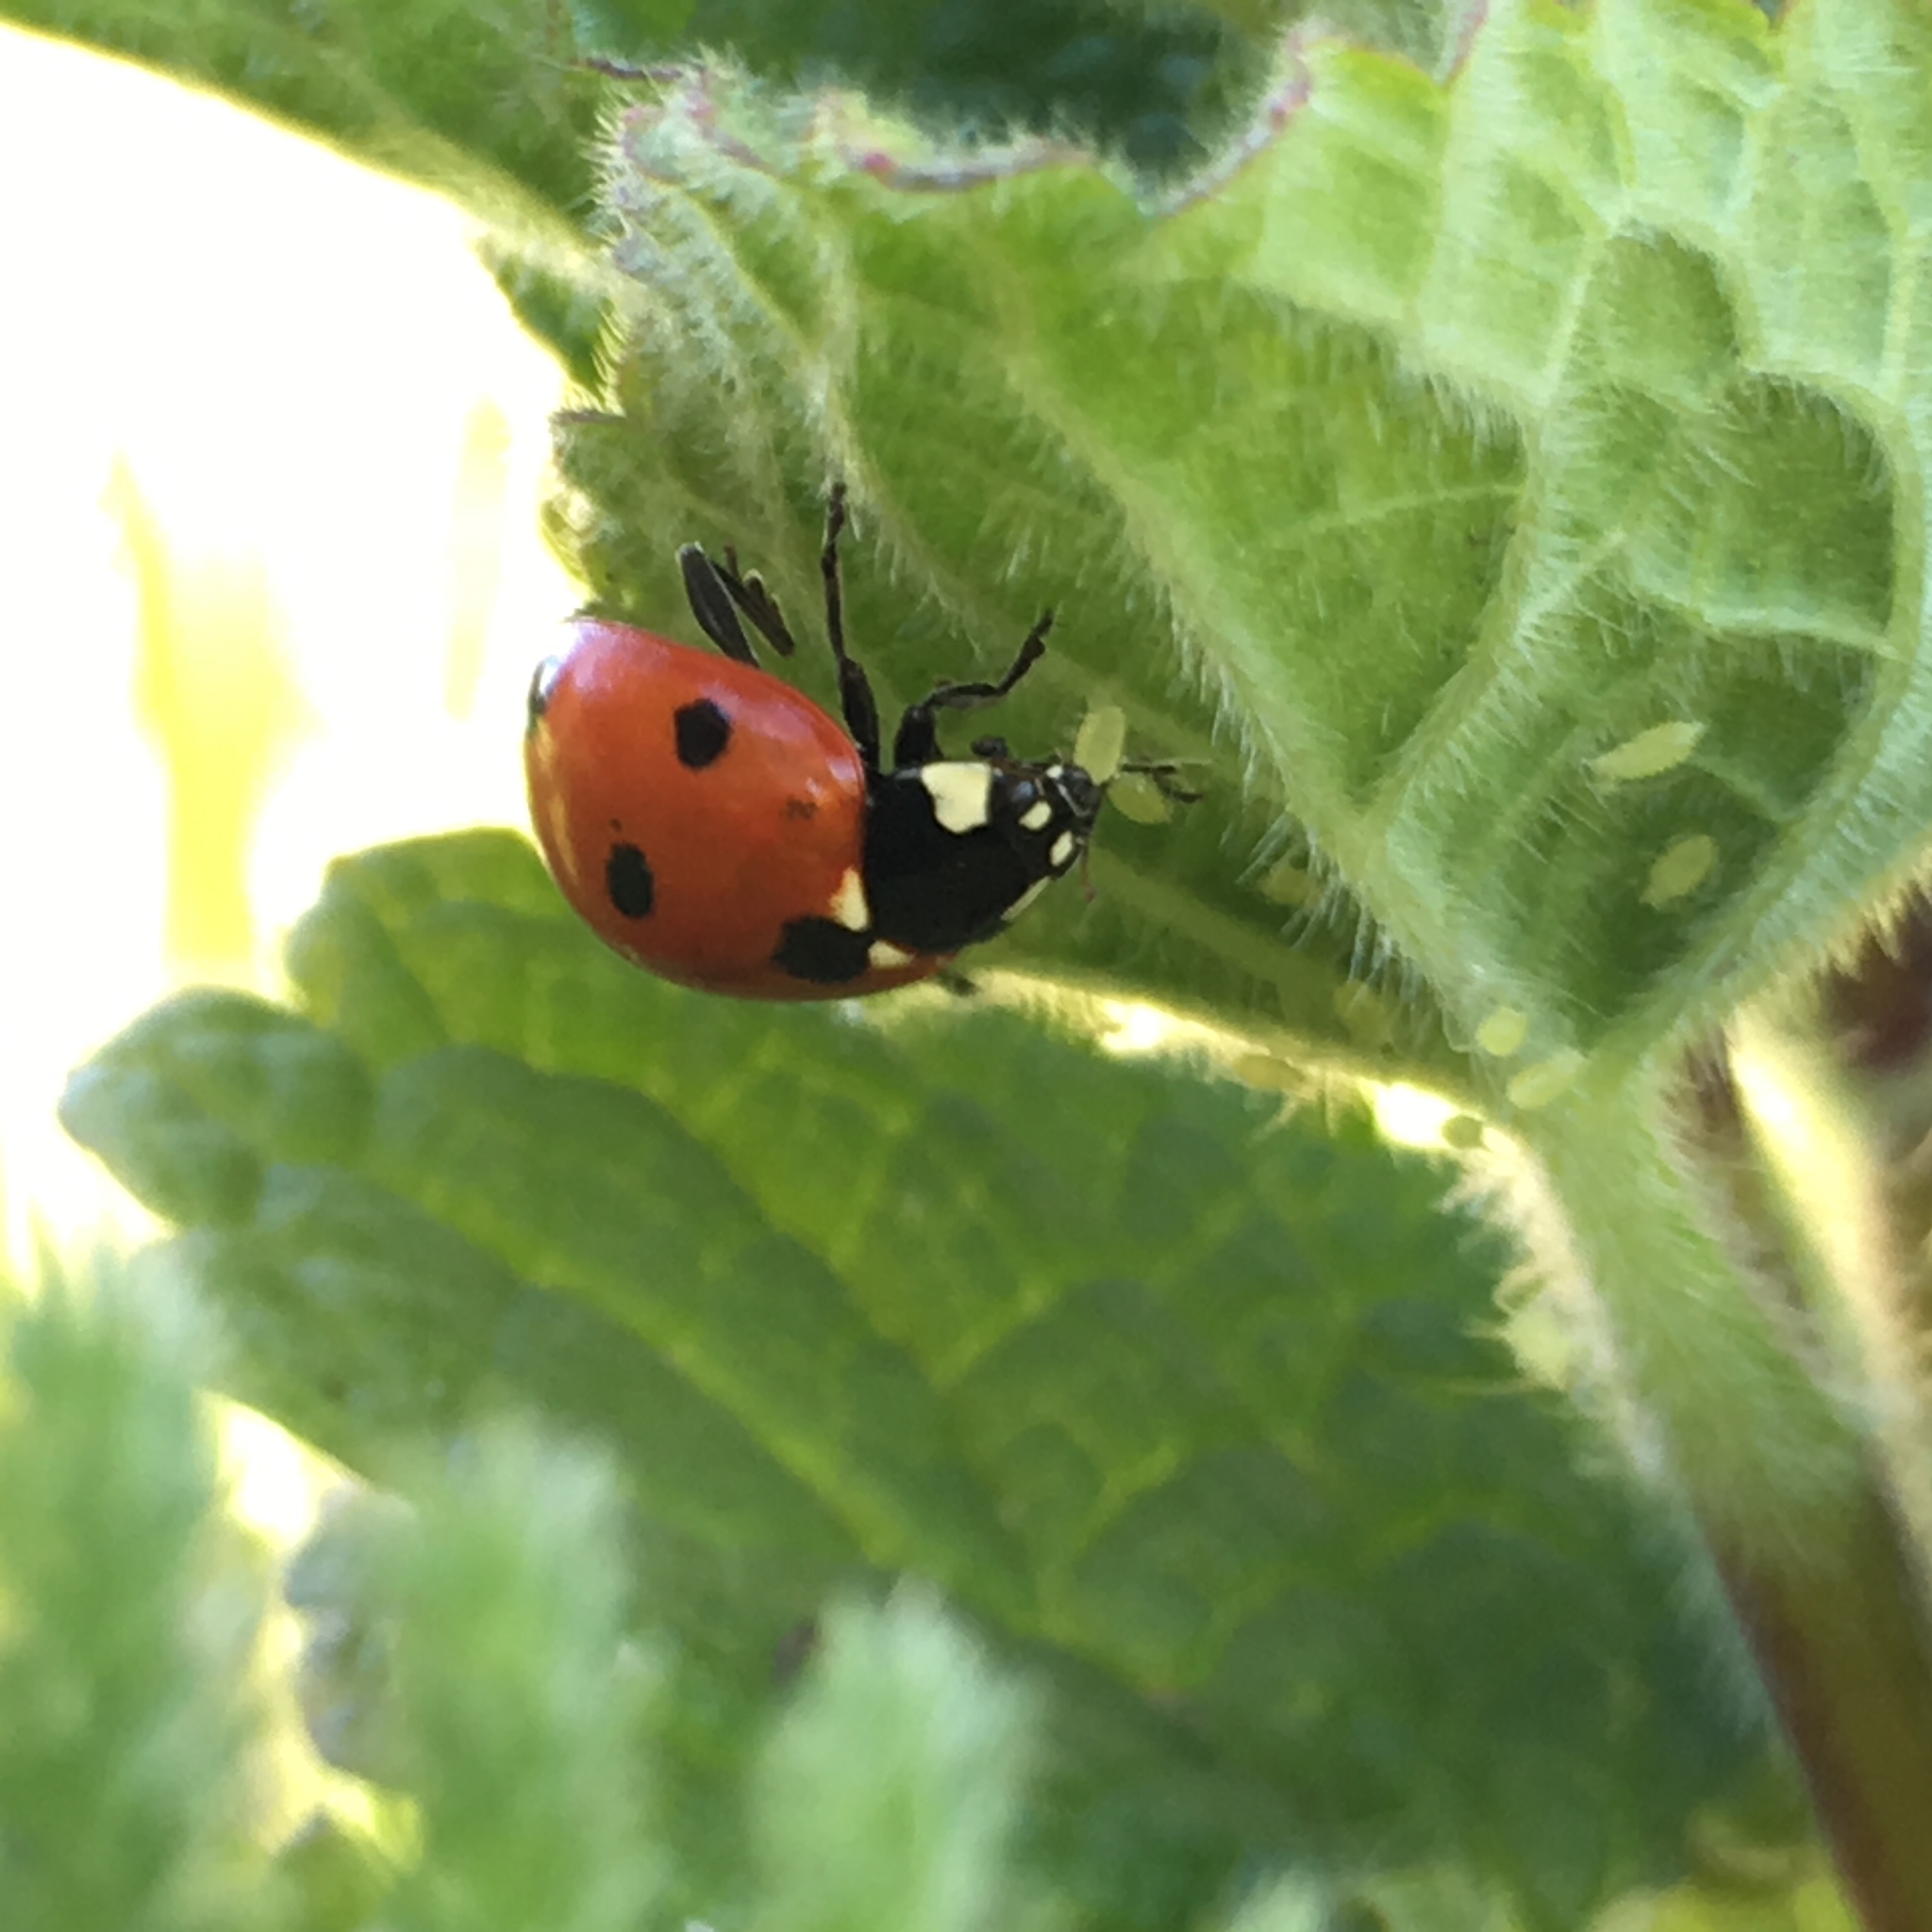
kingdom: Animalia
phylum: Arthropoda
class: Insecta
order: Coleoptera
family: Coccinellidae
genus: Coccinella
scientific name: Coccinella septempunctata
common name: Sevenspotted lady beetle
